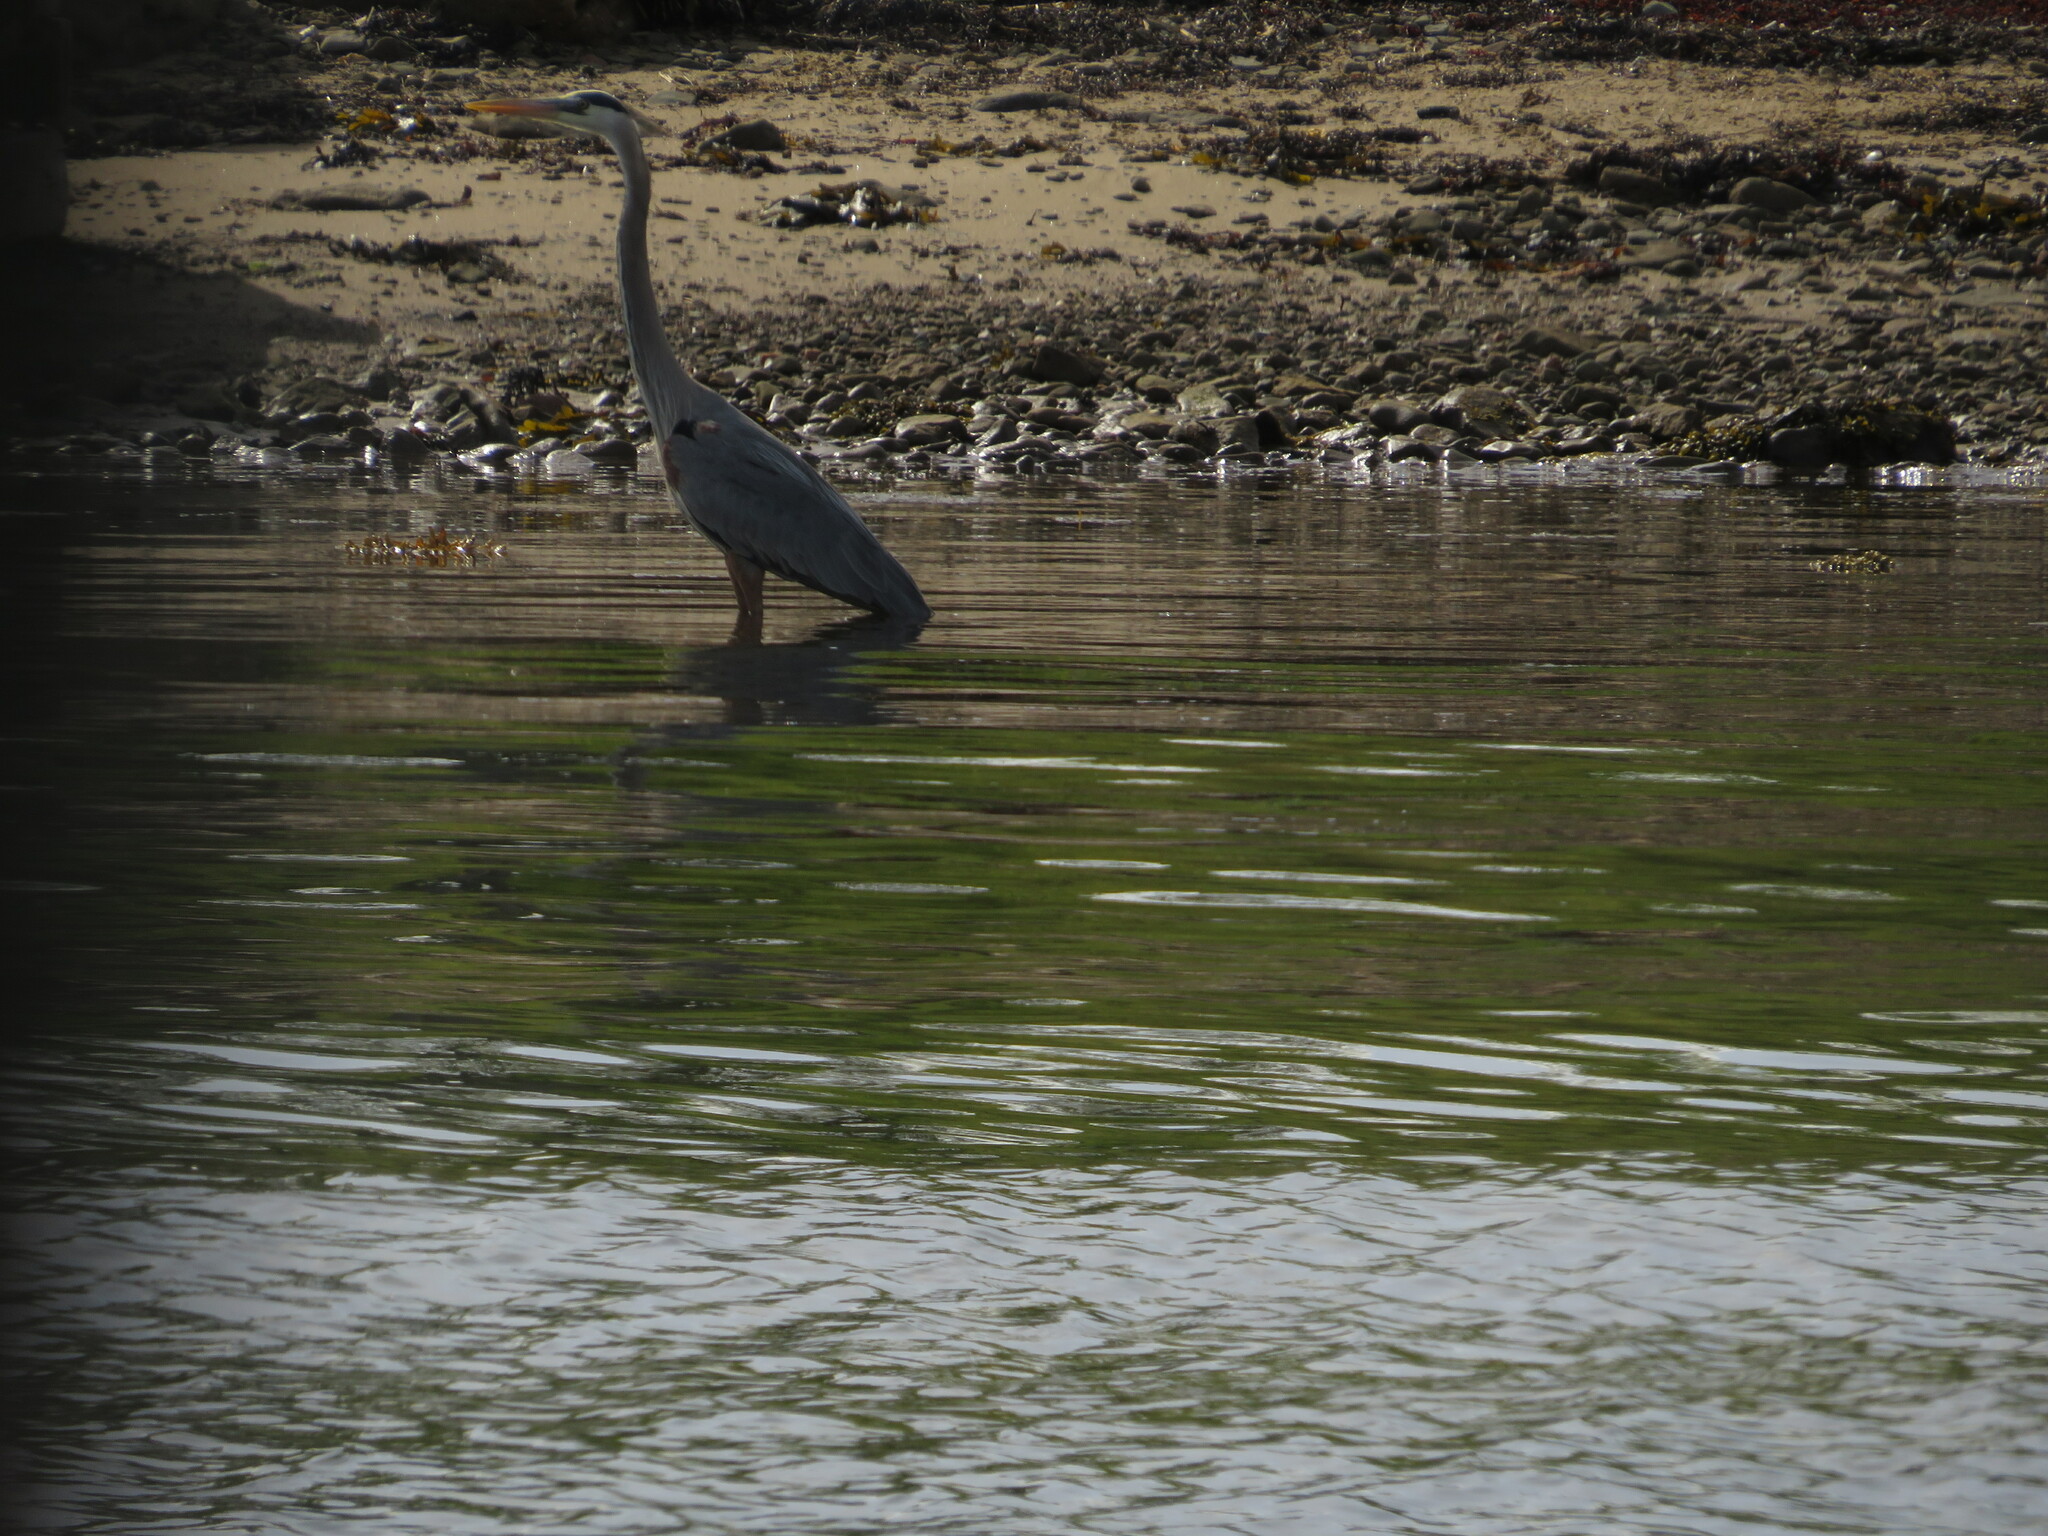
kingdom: Animalia
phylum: Chordata
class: Aves
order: Pelecaniformes
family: Ardeidae
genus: Ardea
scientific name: Ardea herodias
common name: Great blue heron
